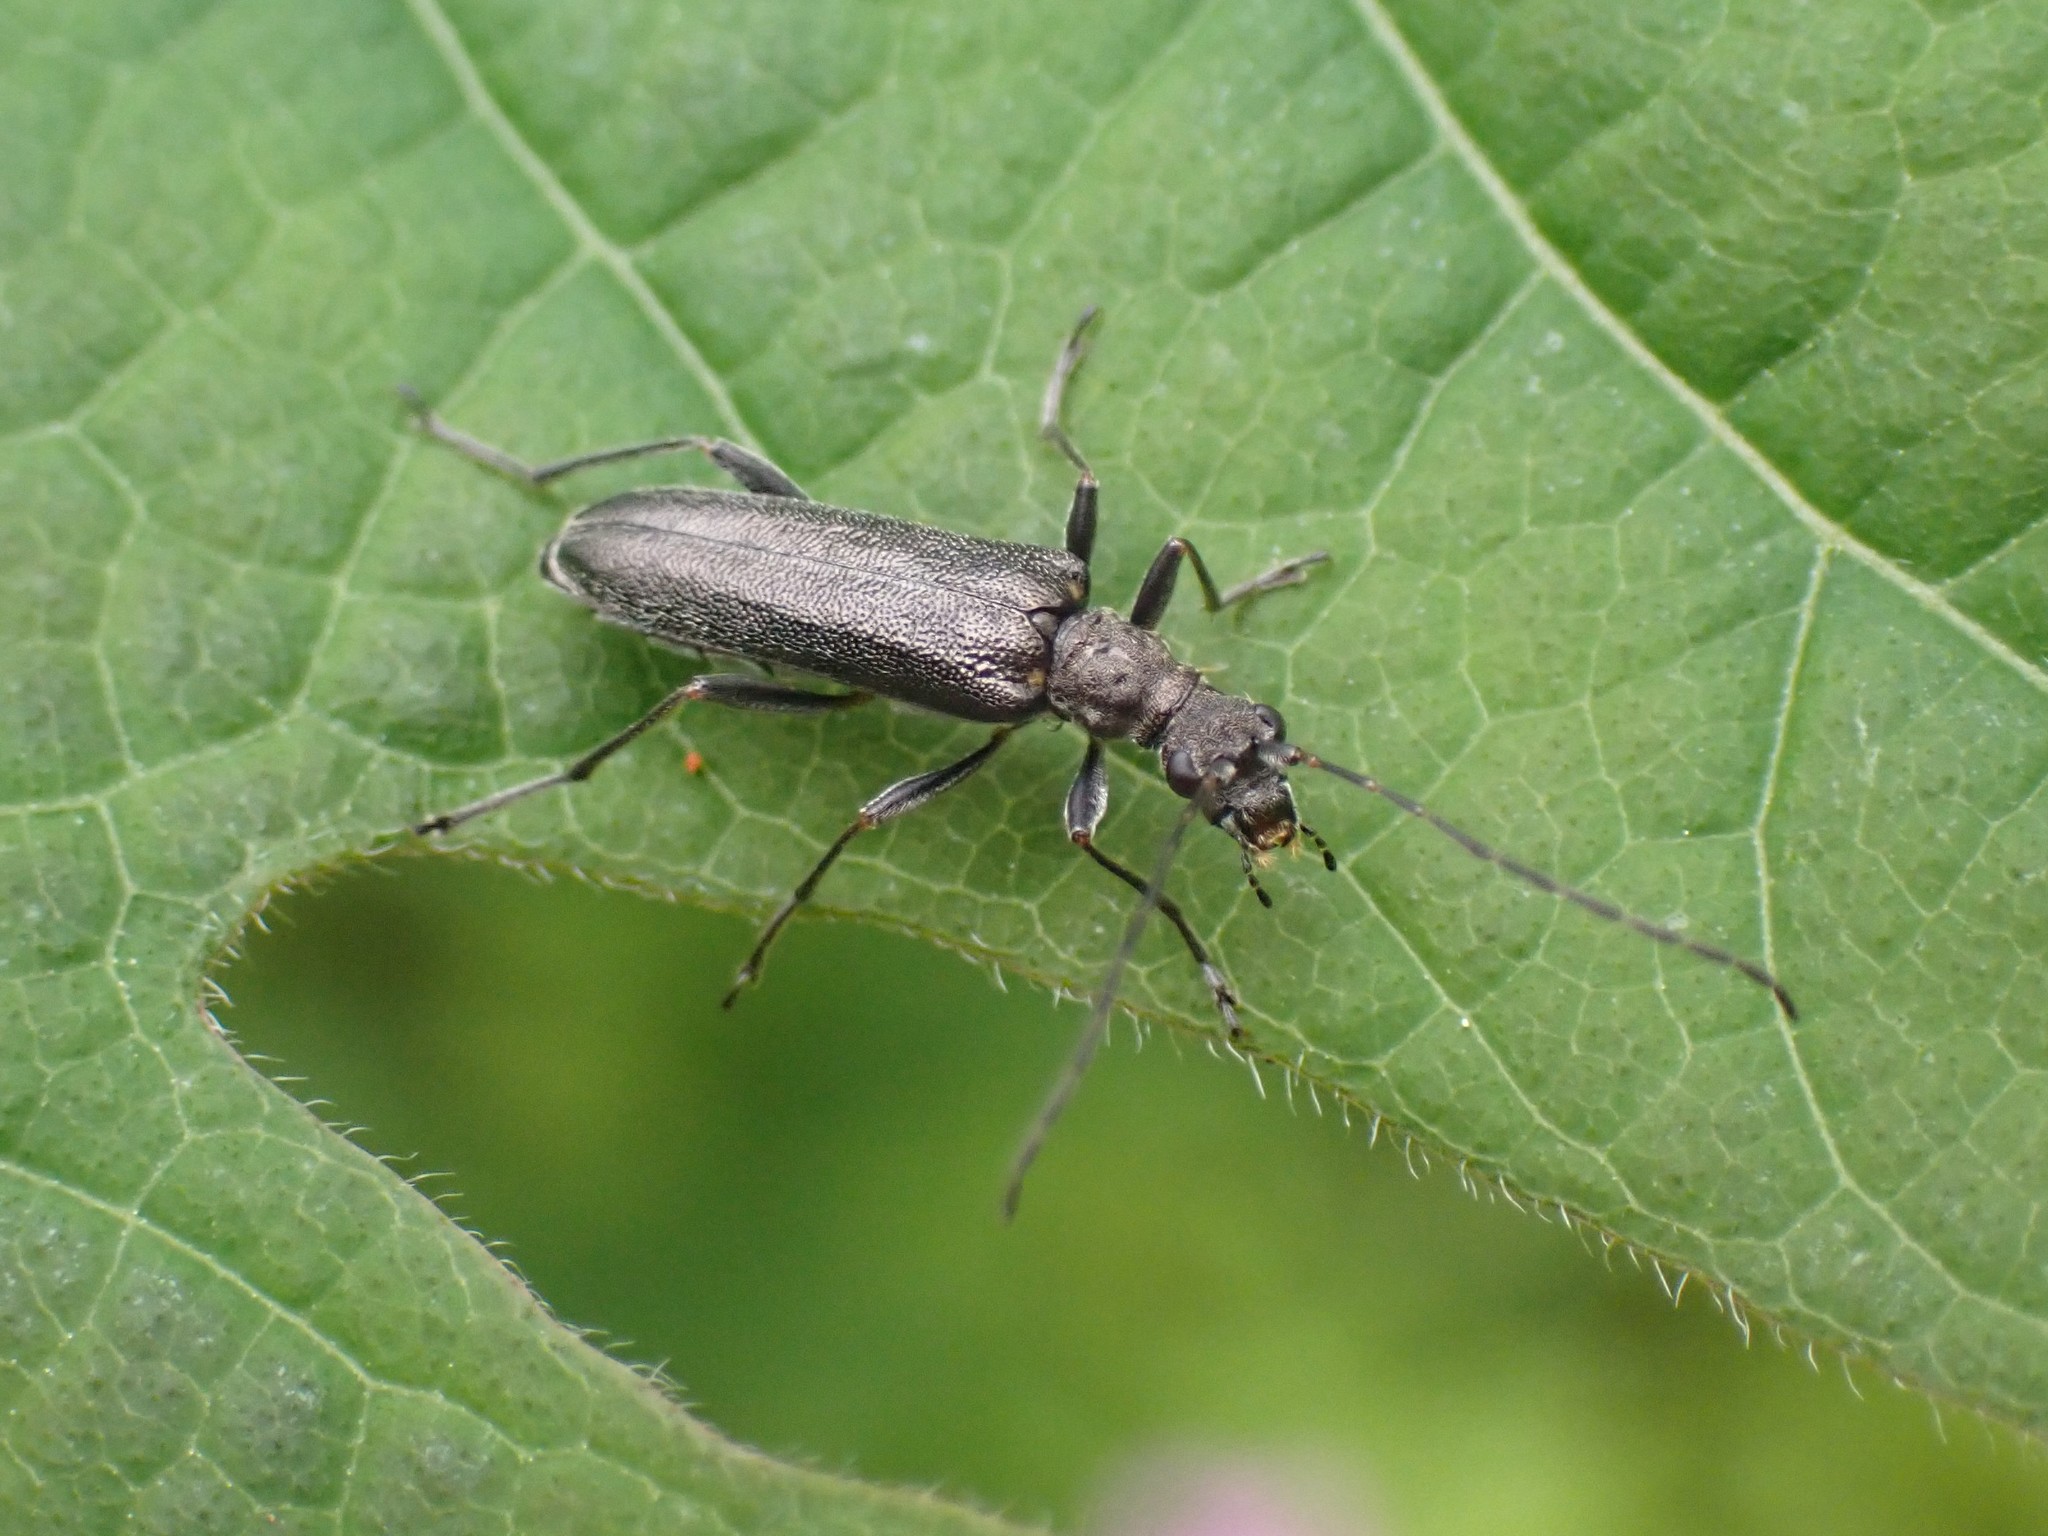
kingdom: Animalia
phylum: Arthropoda
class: Insecta
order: Coleoptera
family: Cerambycidae
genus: Leptalia
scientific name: Leptalia macilenta
